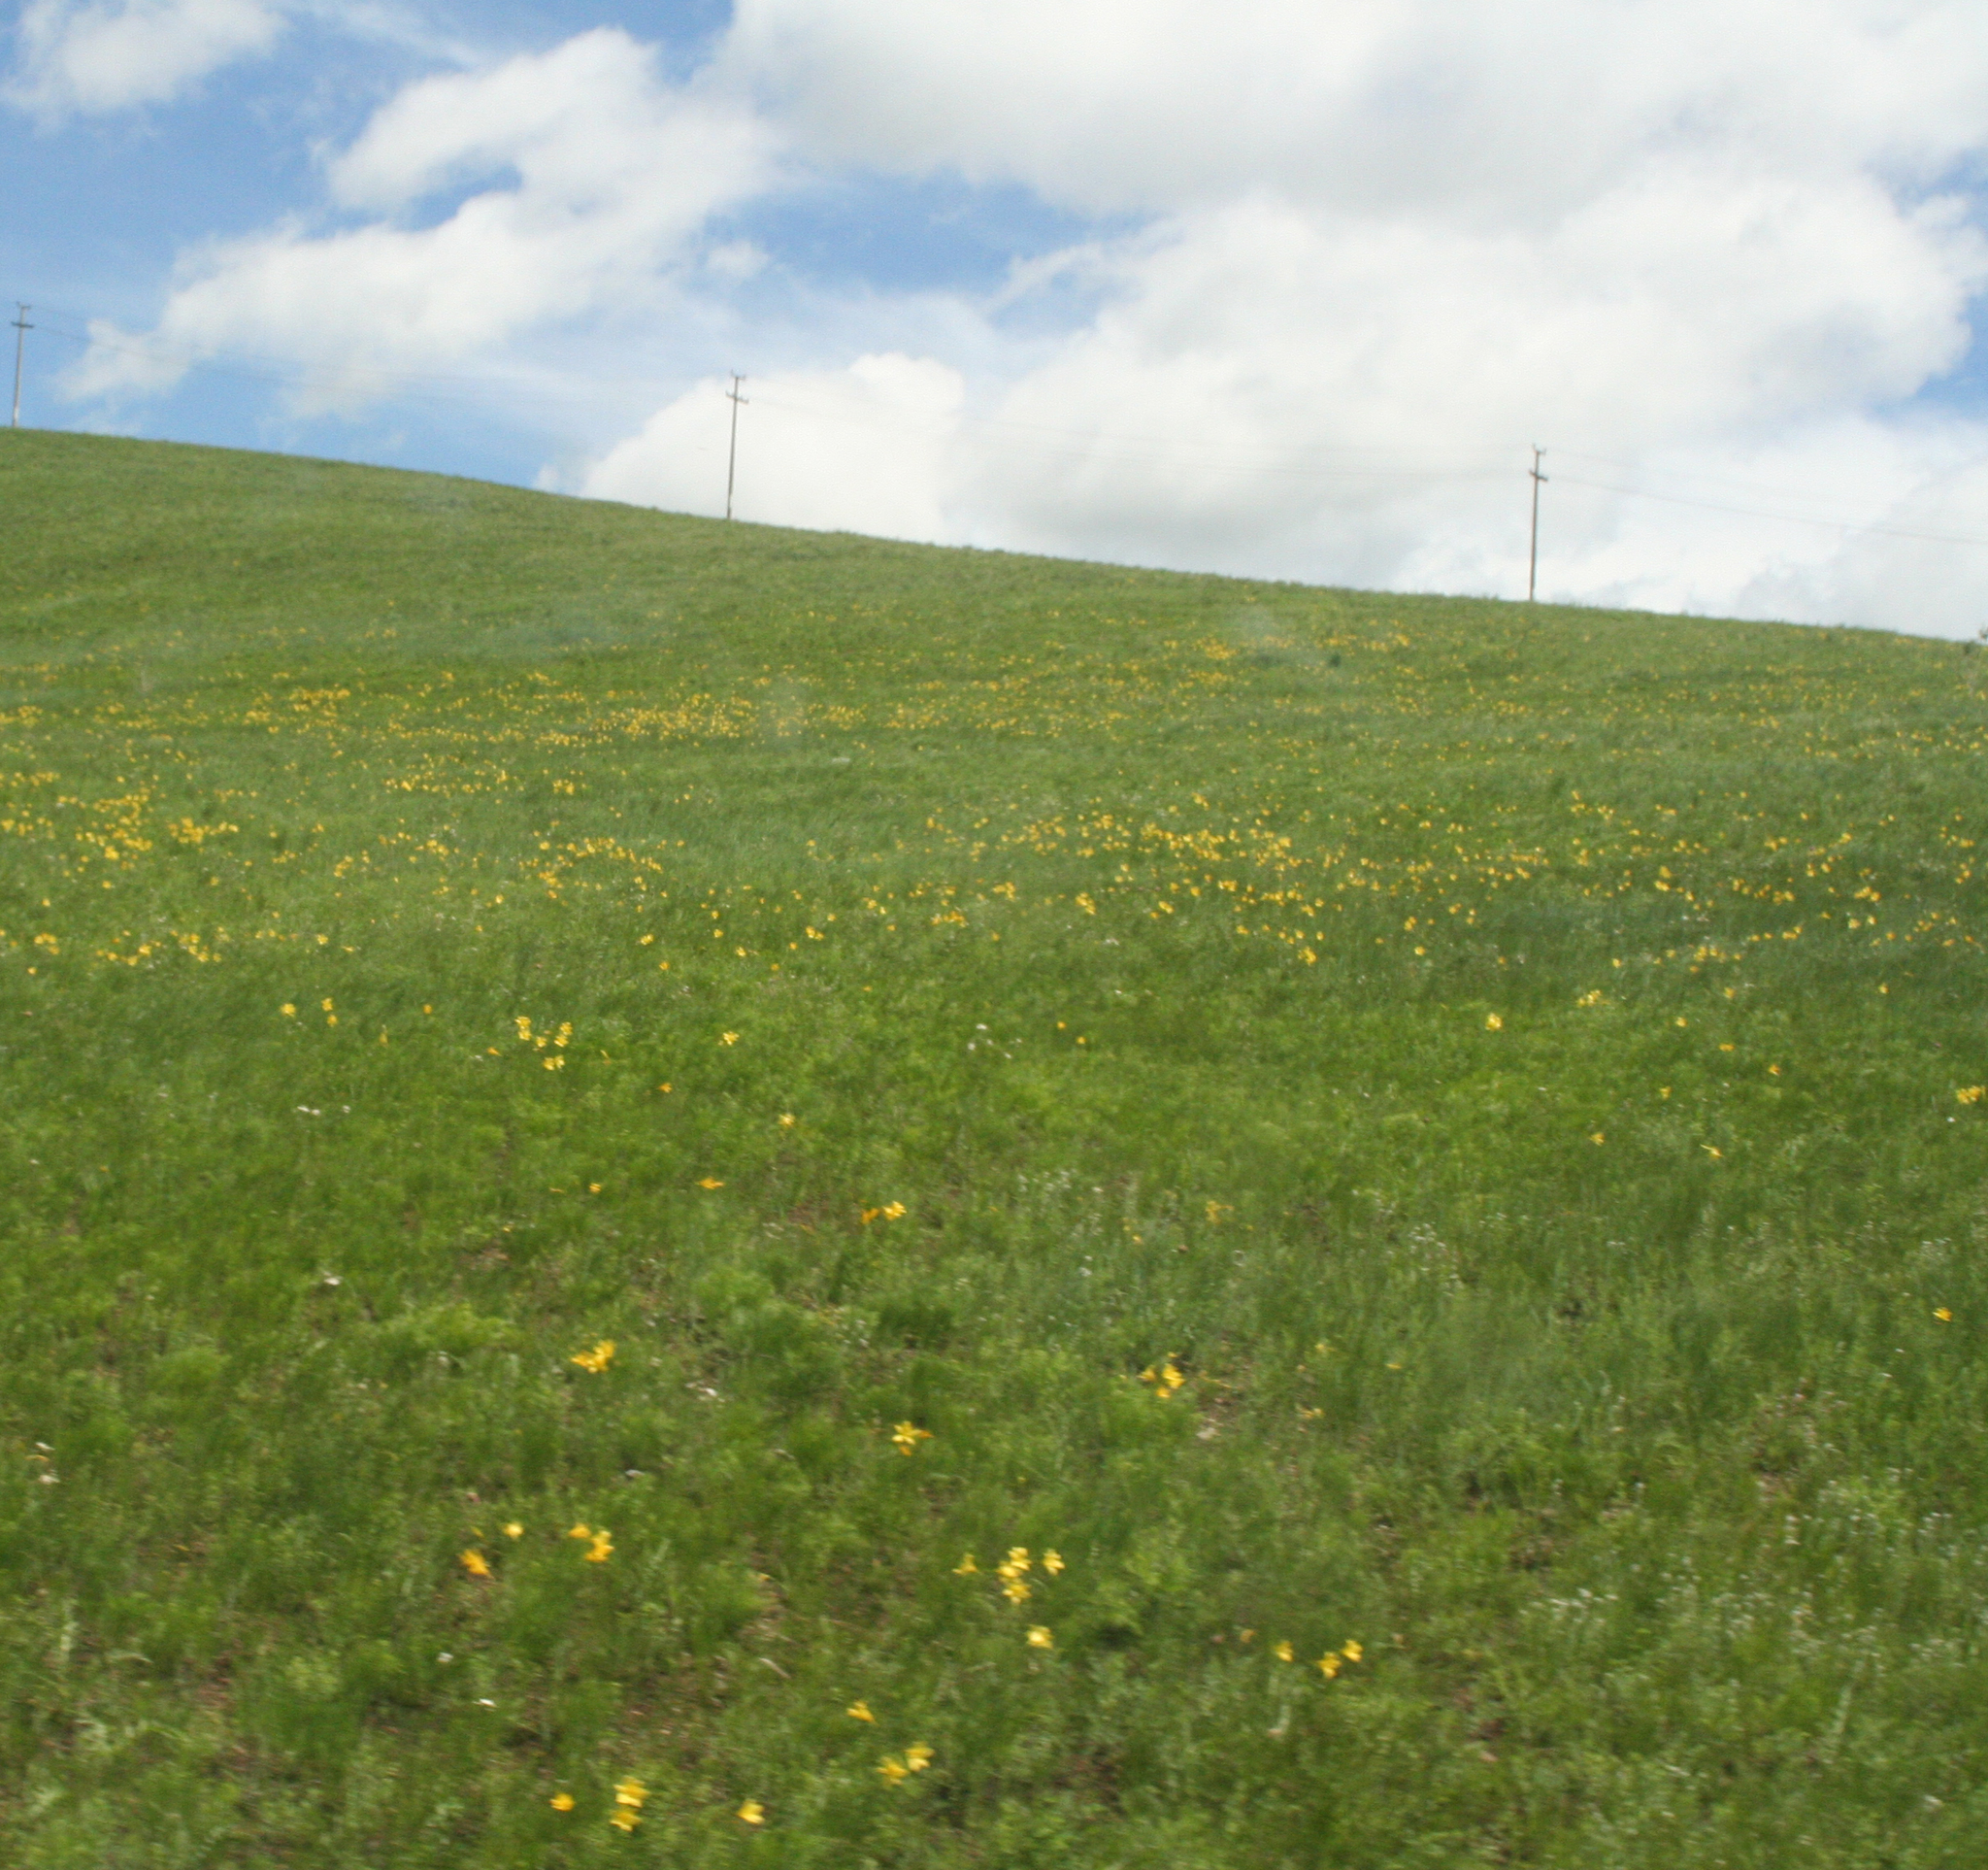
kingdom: Plantae
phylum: Tracheophyta
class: Liliopsida
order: Asparagales
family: Asphodelaceae
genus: Hemerocallis
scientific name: Hemerocallis minor
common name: Small daylily
